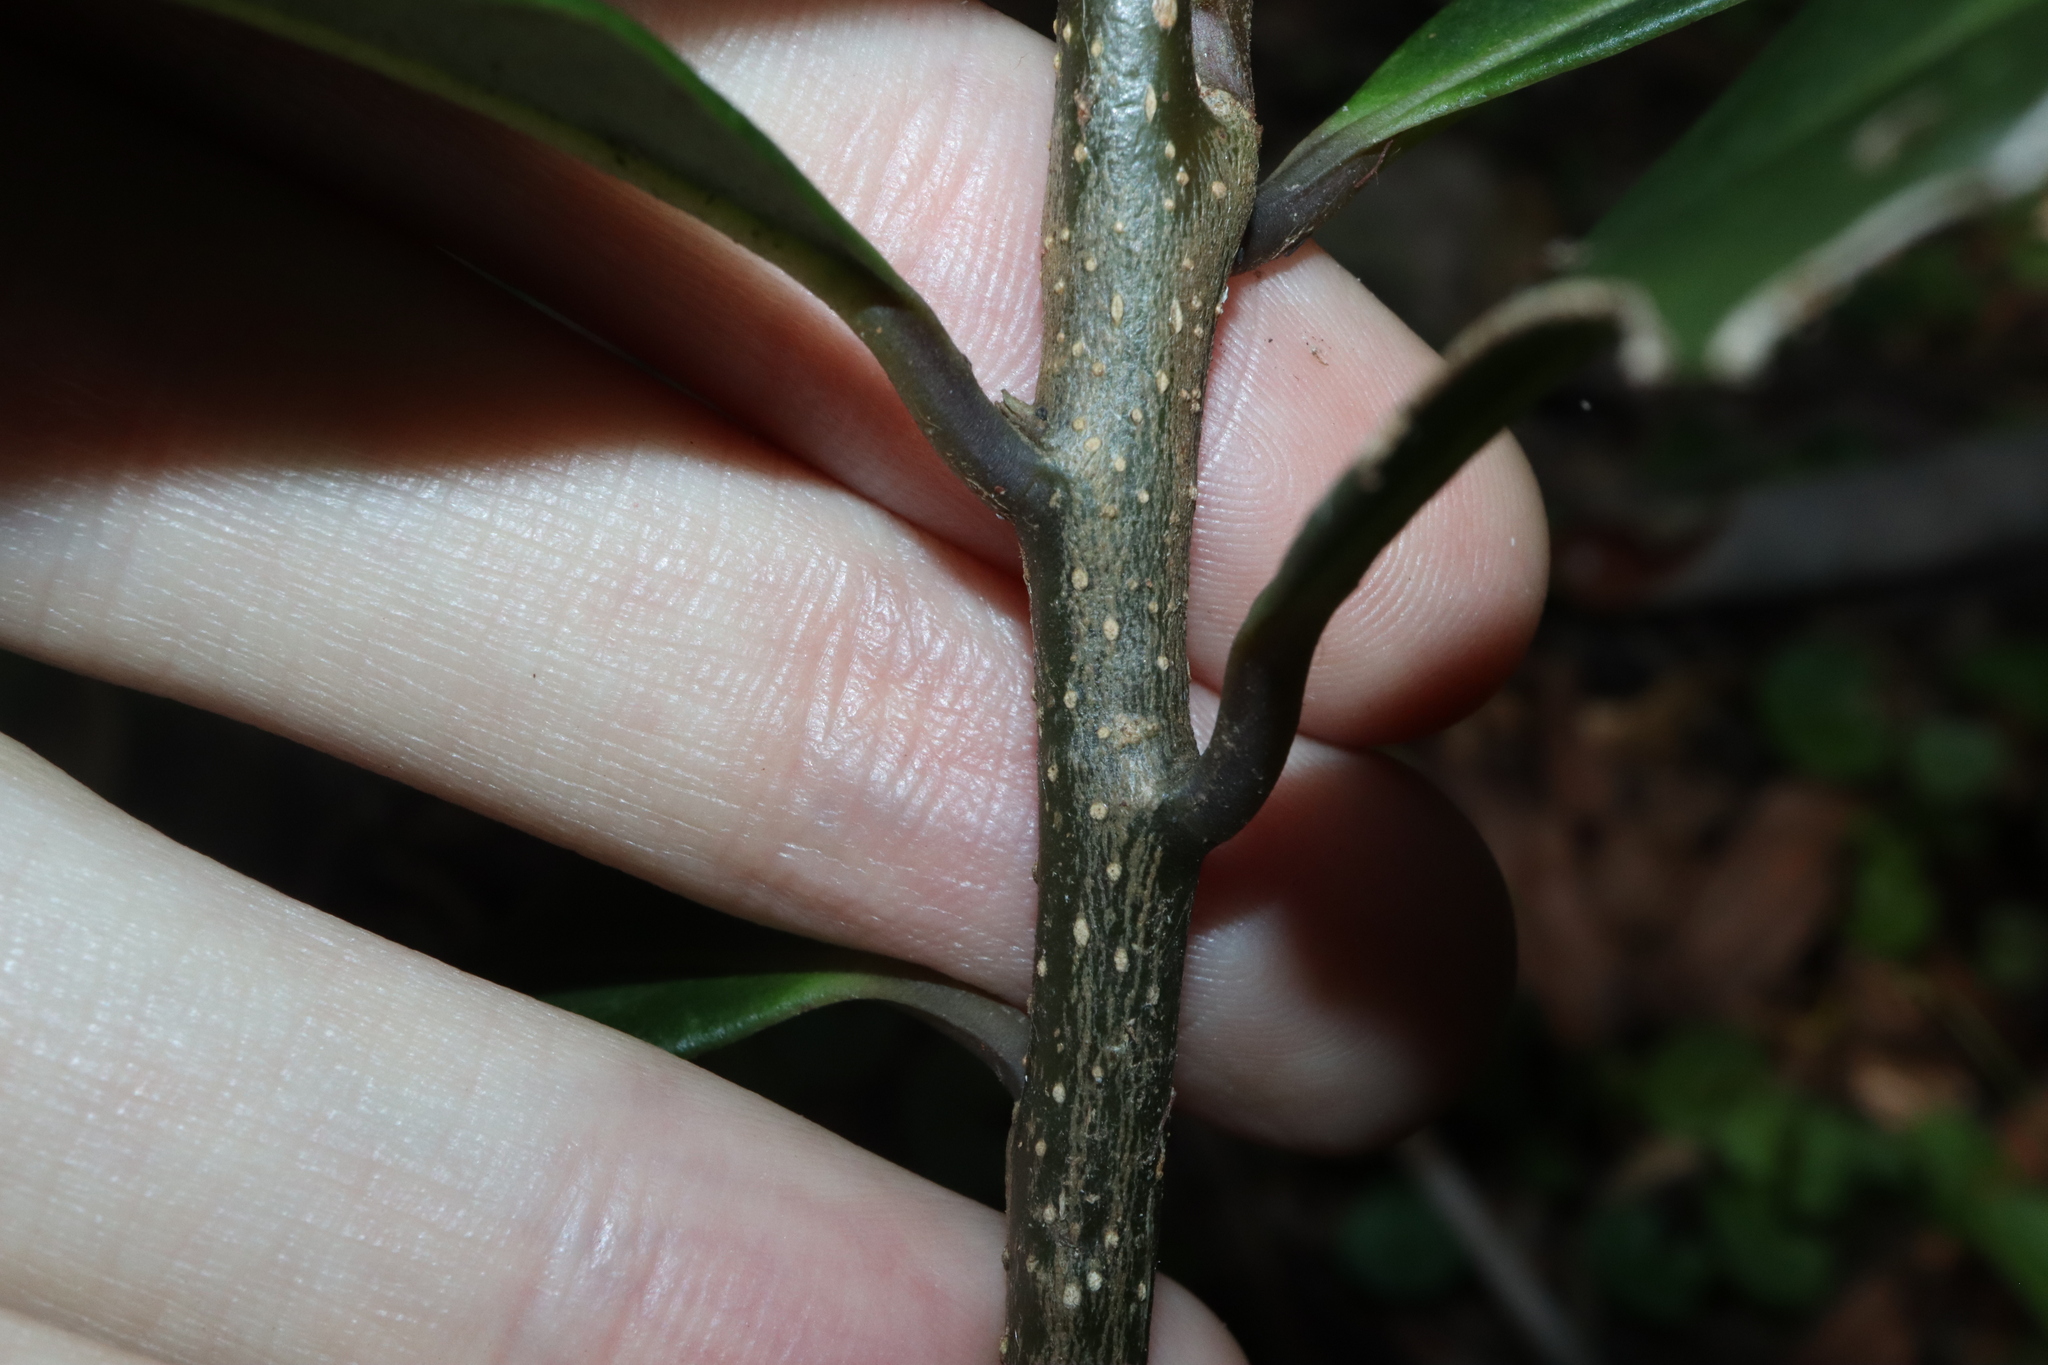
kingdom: Plantae
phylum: Tracheophyta
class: Magnoliopsida
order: Ericales
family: Primulaceae
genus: Myrsine
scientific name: Myrsine howittiana
